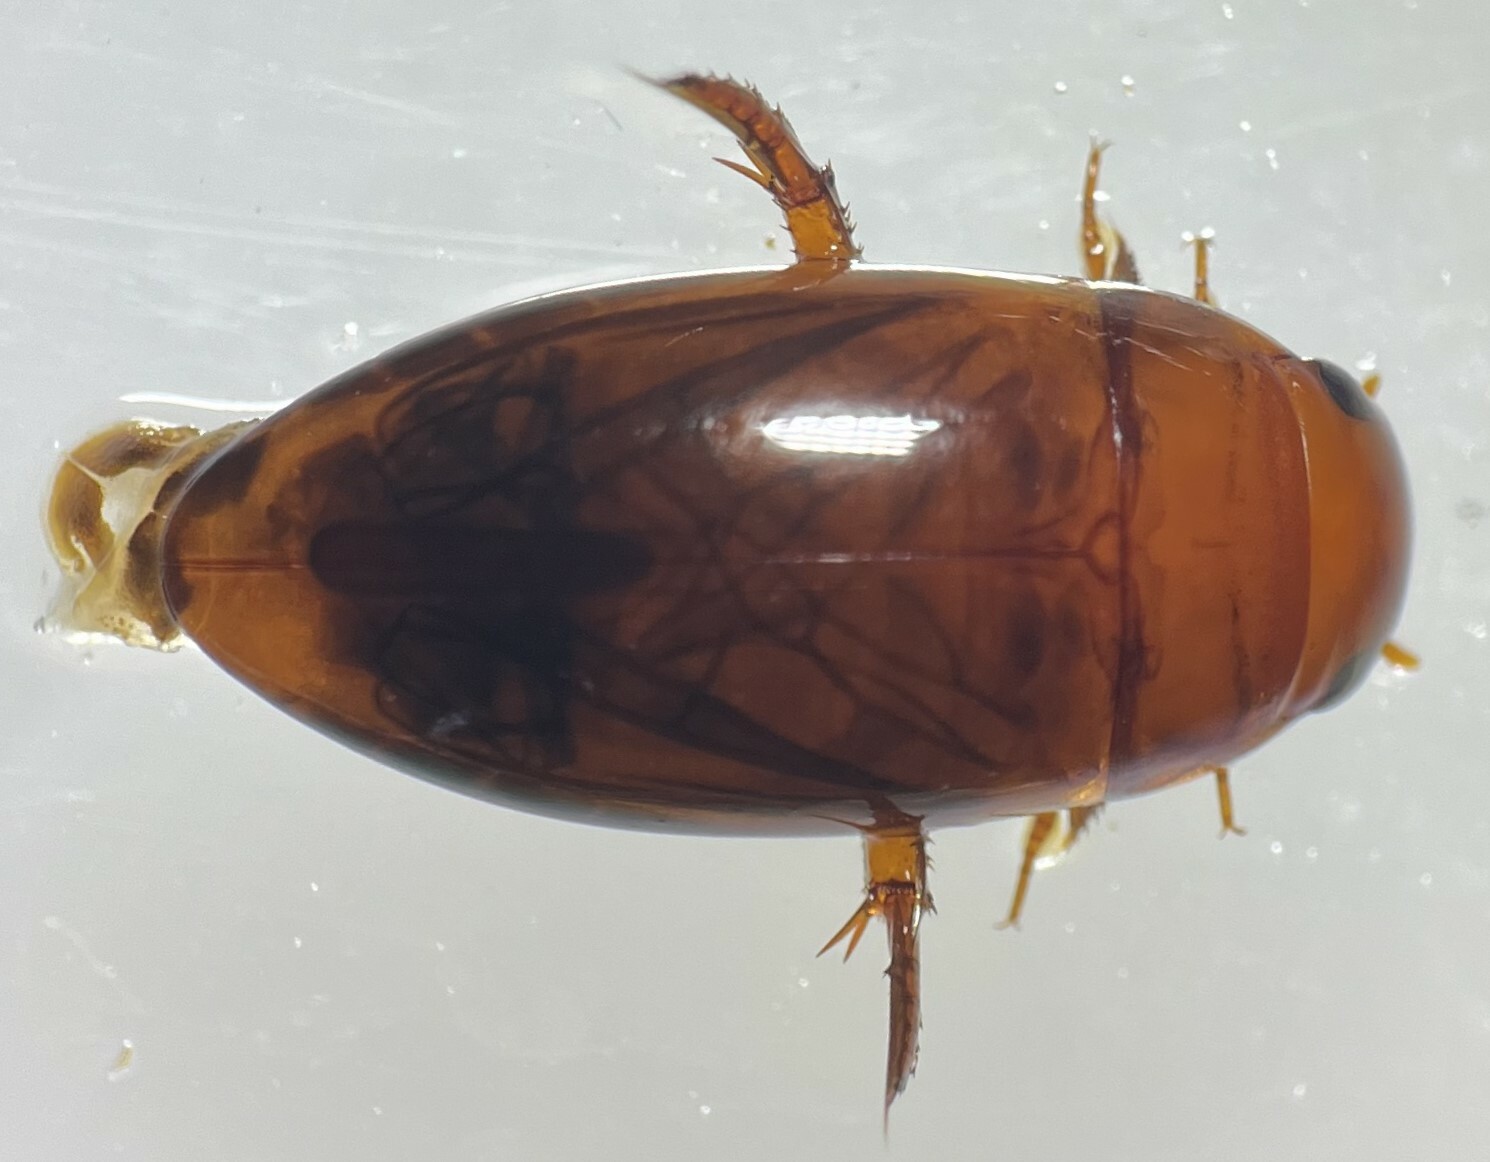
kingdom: Animalia
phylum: Arthropoda
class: Insecta
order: Coleoptera
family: Dytiscidae
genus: Matus
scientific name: Matus relictus
